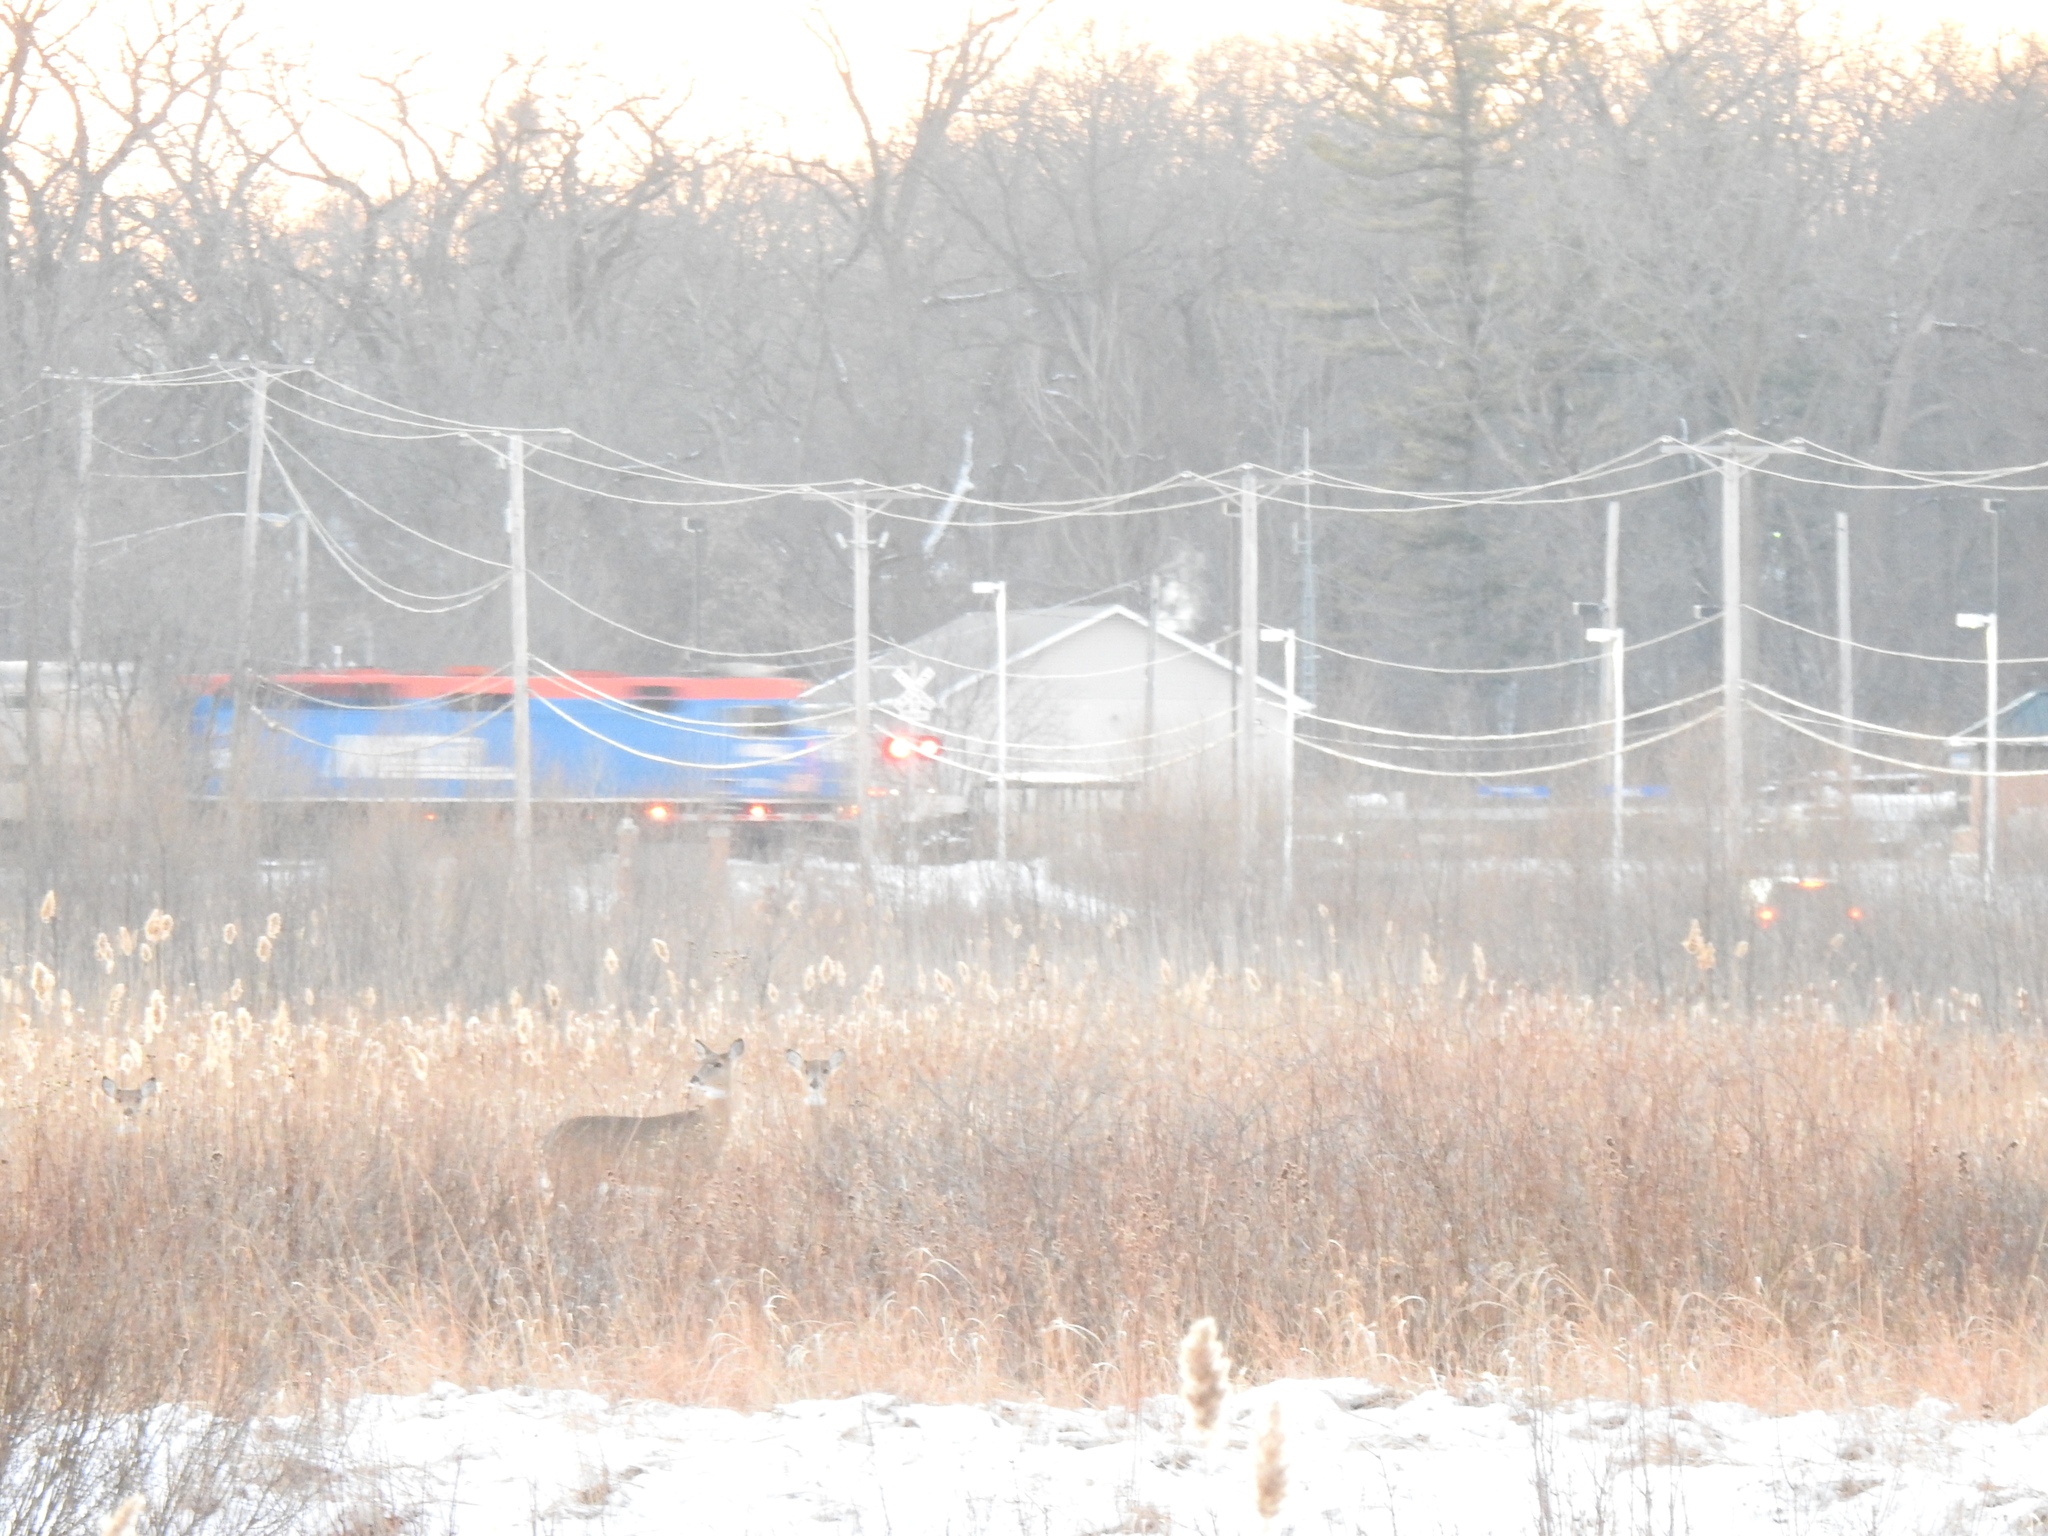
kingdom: Animalia
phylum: Chordata
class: Mammalia
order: Artiodactyla
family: Cervidae
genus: Odocoileus
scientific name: Odocoileus virginianus
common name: White-tailed deer
